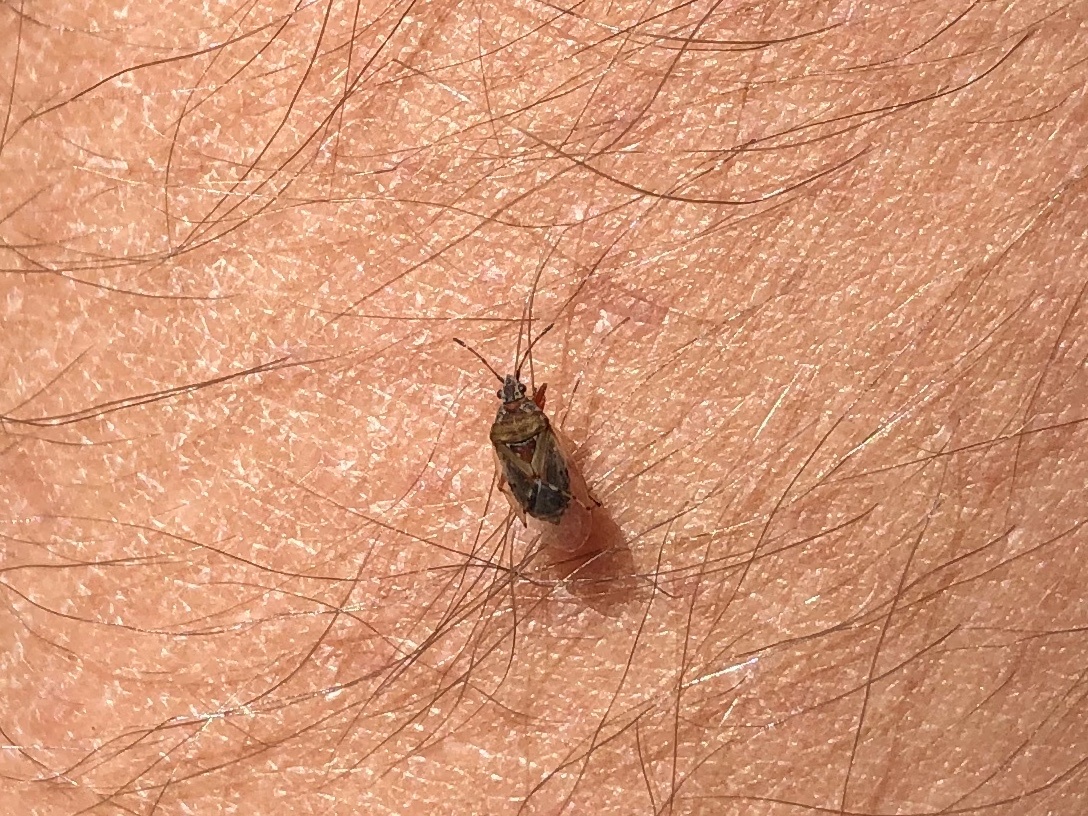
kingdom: Animalia
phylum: Arthropoda
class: Insecta
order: Hemiptera
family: Lygaeidae
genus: Kleidocerys
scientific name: Kleidocerys resedae
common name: Birch catkin bug
